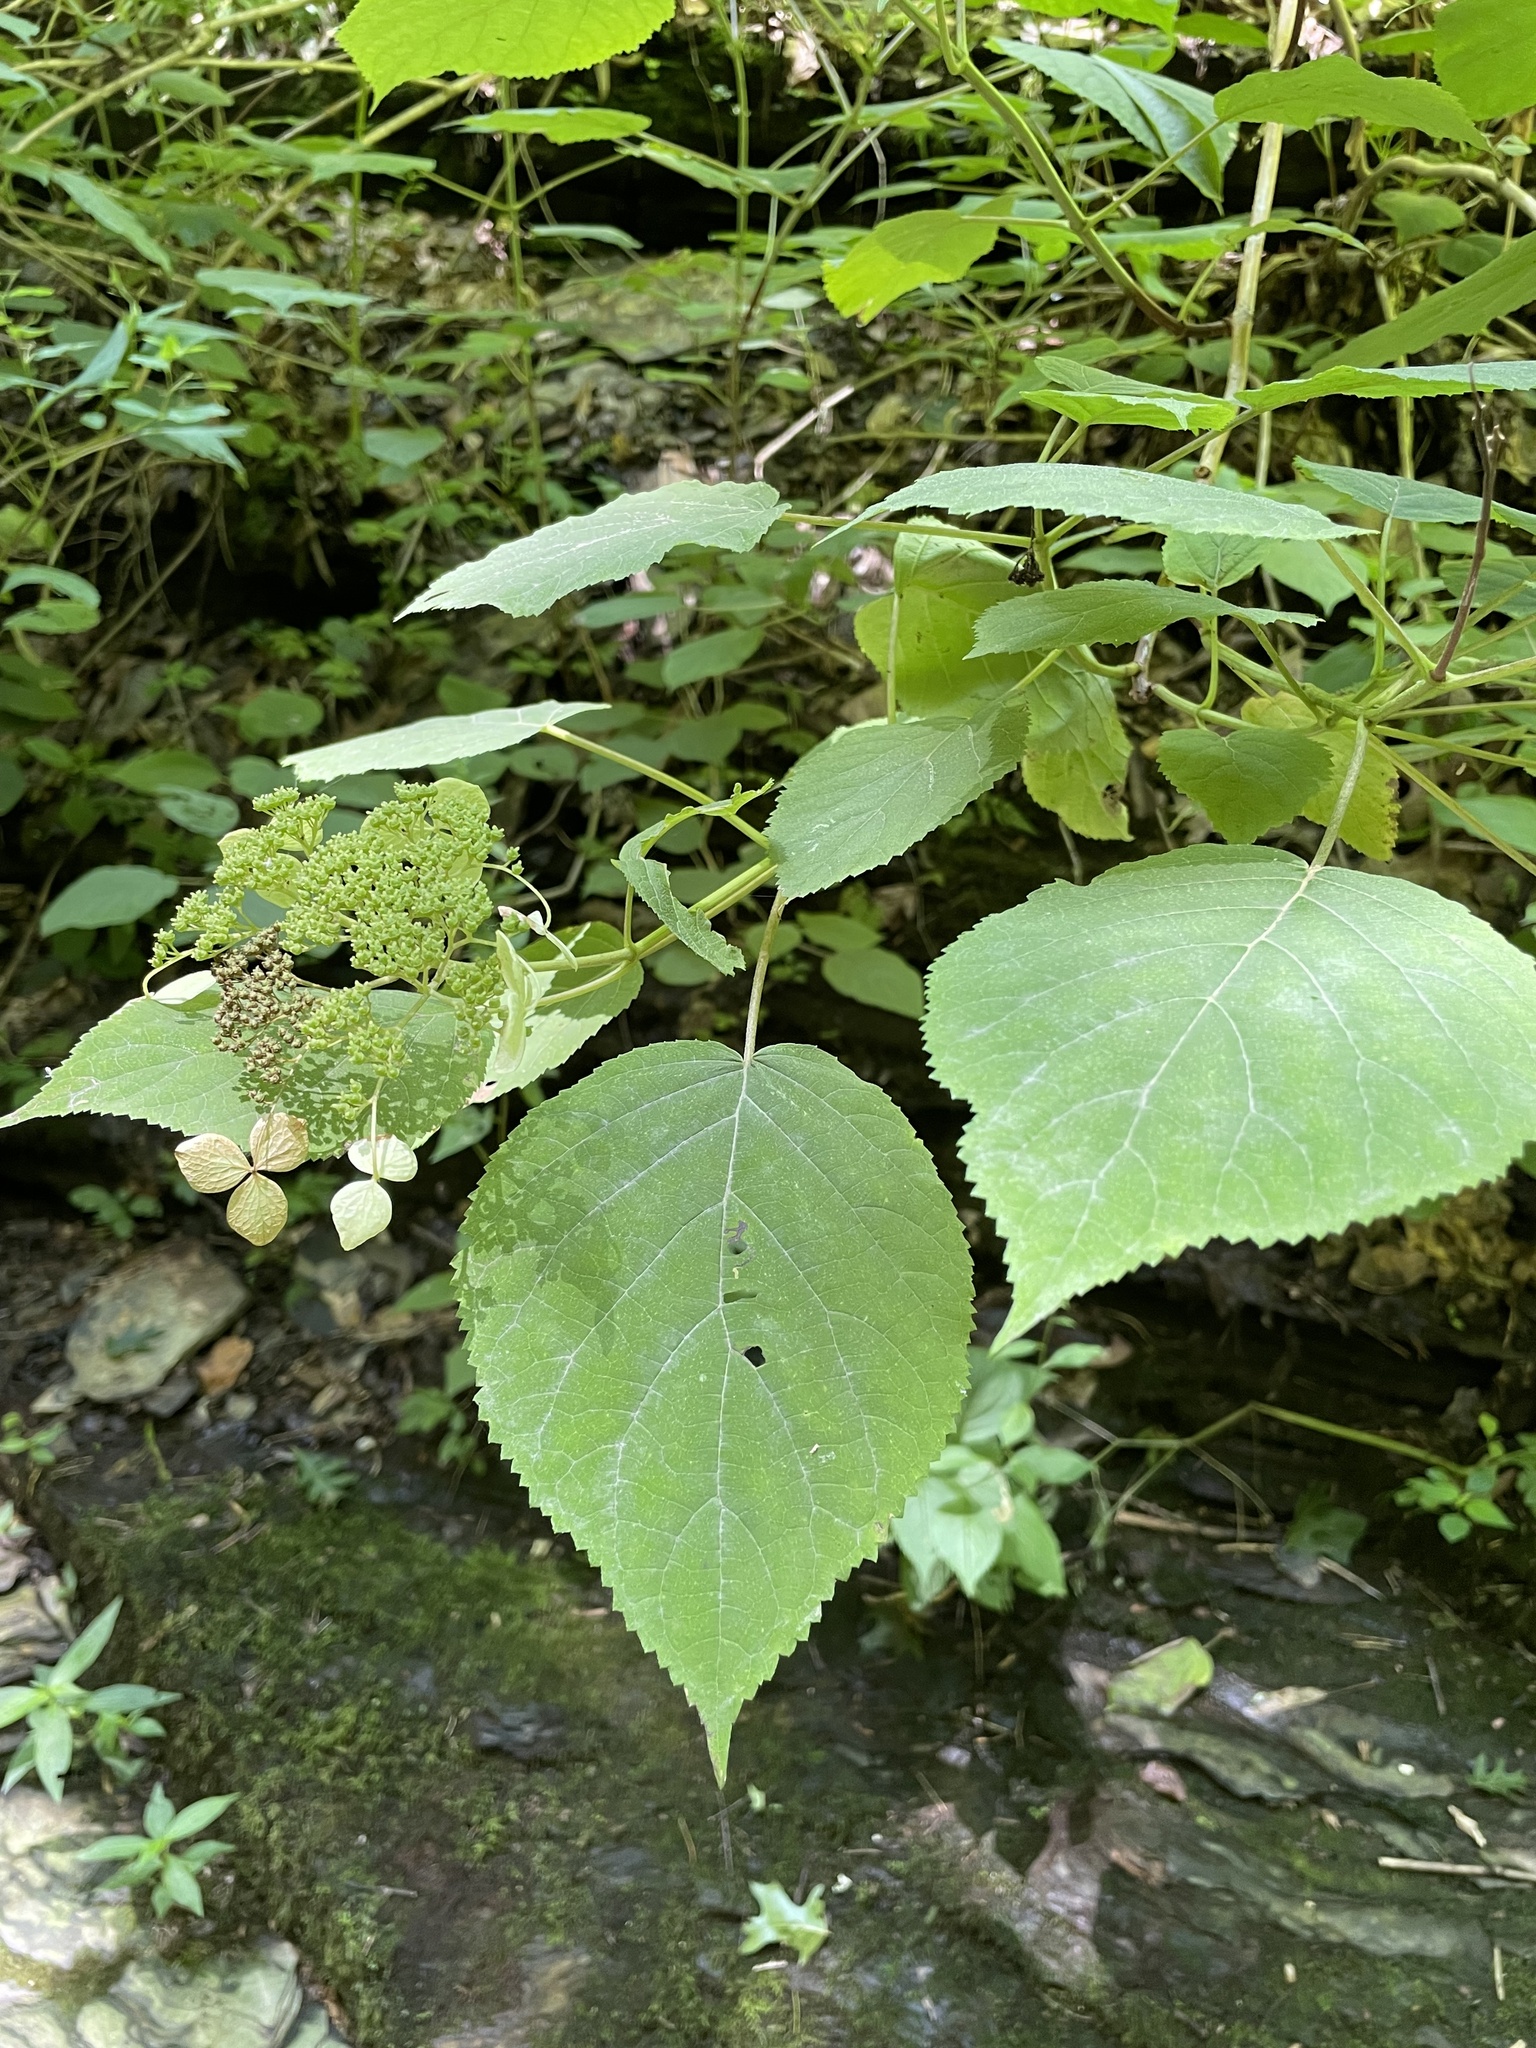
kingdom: Plantae
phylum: Tracheophyta
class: Magnoliopsida
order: Cornales
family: Hydrangeaceae
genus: Hydrangea
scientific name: Hydrangea arborescens
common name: Sevenbark
